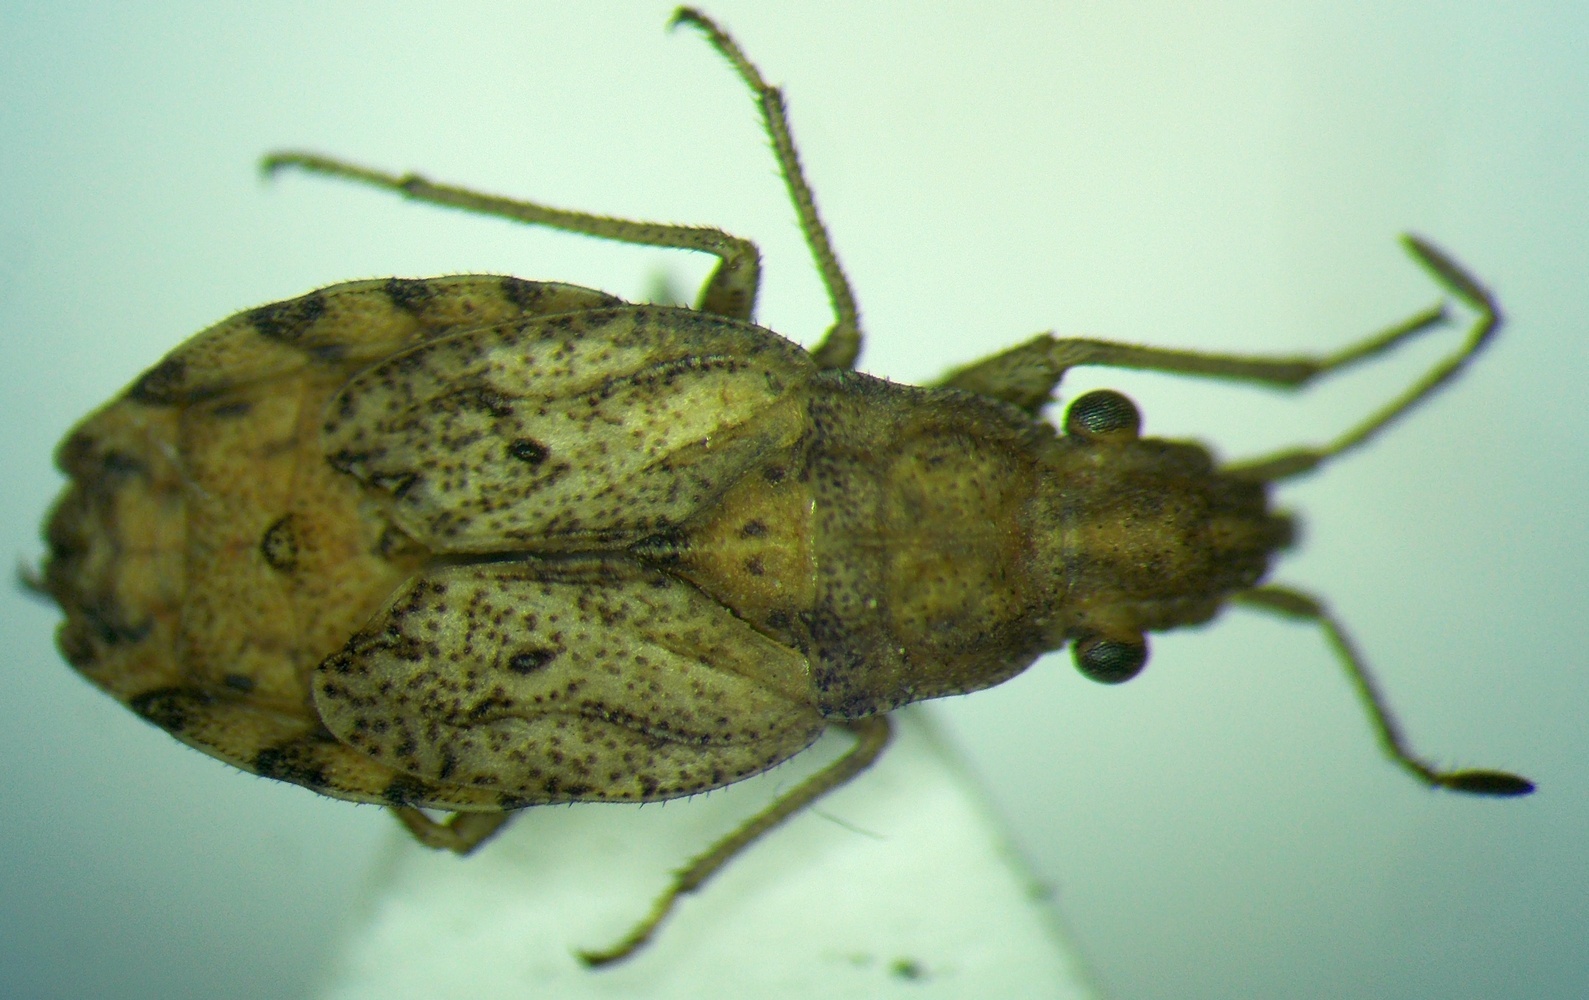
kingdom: Animalia
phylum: Arthropoda
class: Insecta
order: Hemiptera
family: Rhyparochromidae
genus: Diomphalus
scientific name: Diomphalus hispidulus
